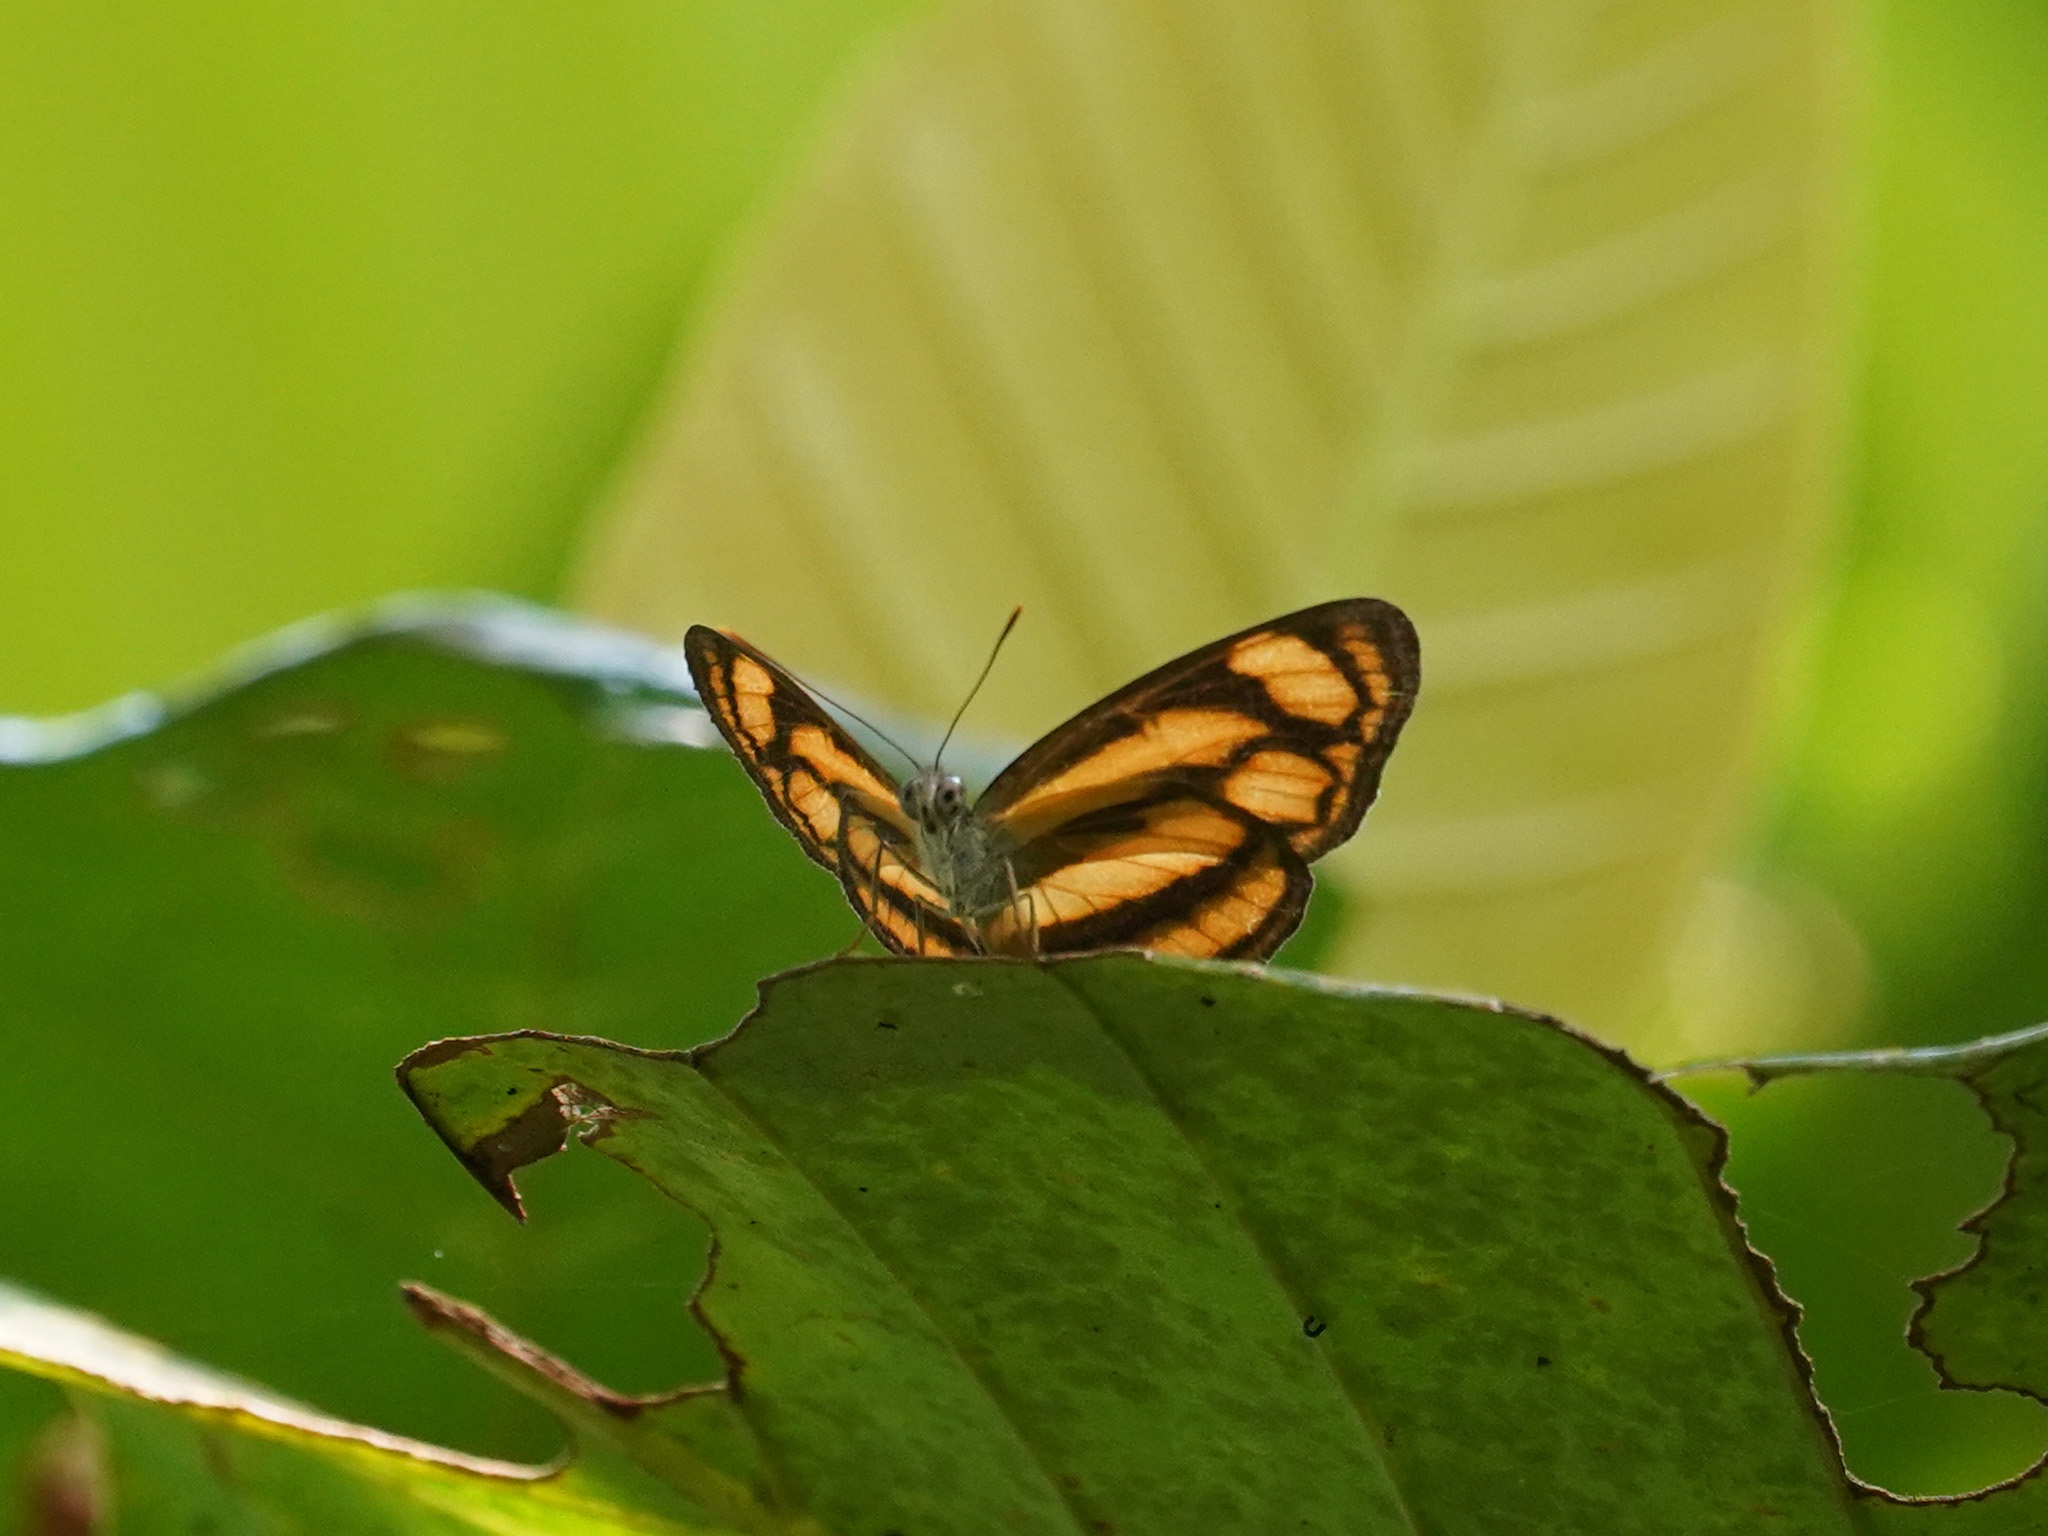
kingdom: Animalia
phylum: Arthropoda
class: Insecta
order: Lepidoptera
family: Nymphalidae
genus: Lasippa
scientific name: Lasippa tiga
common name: Malayan lascar
